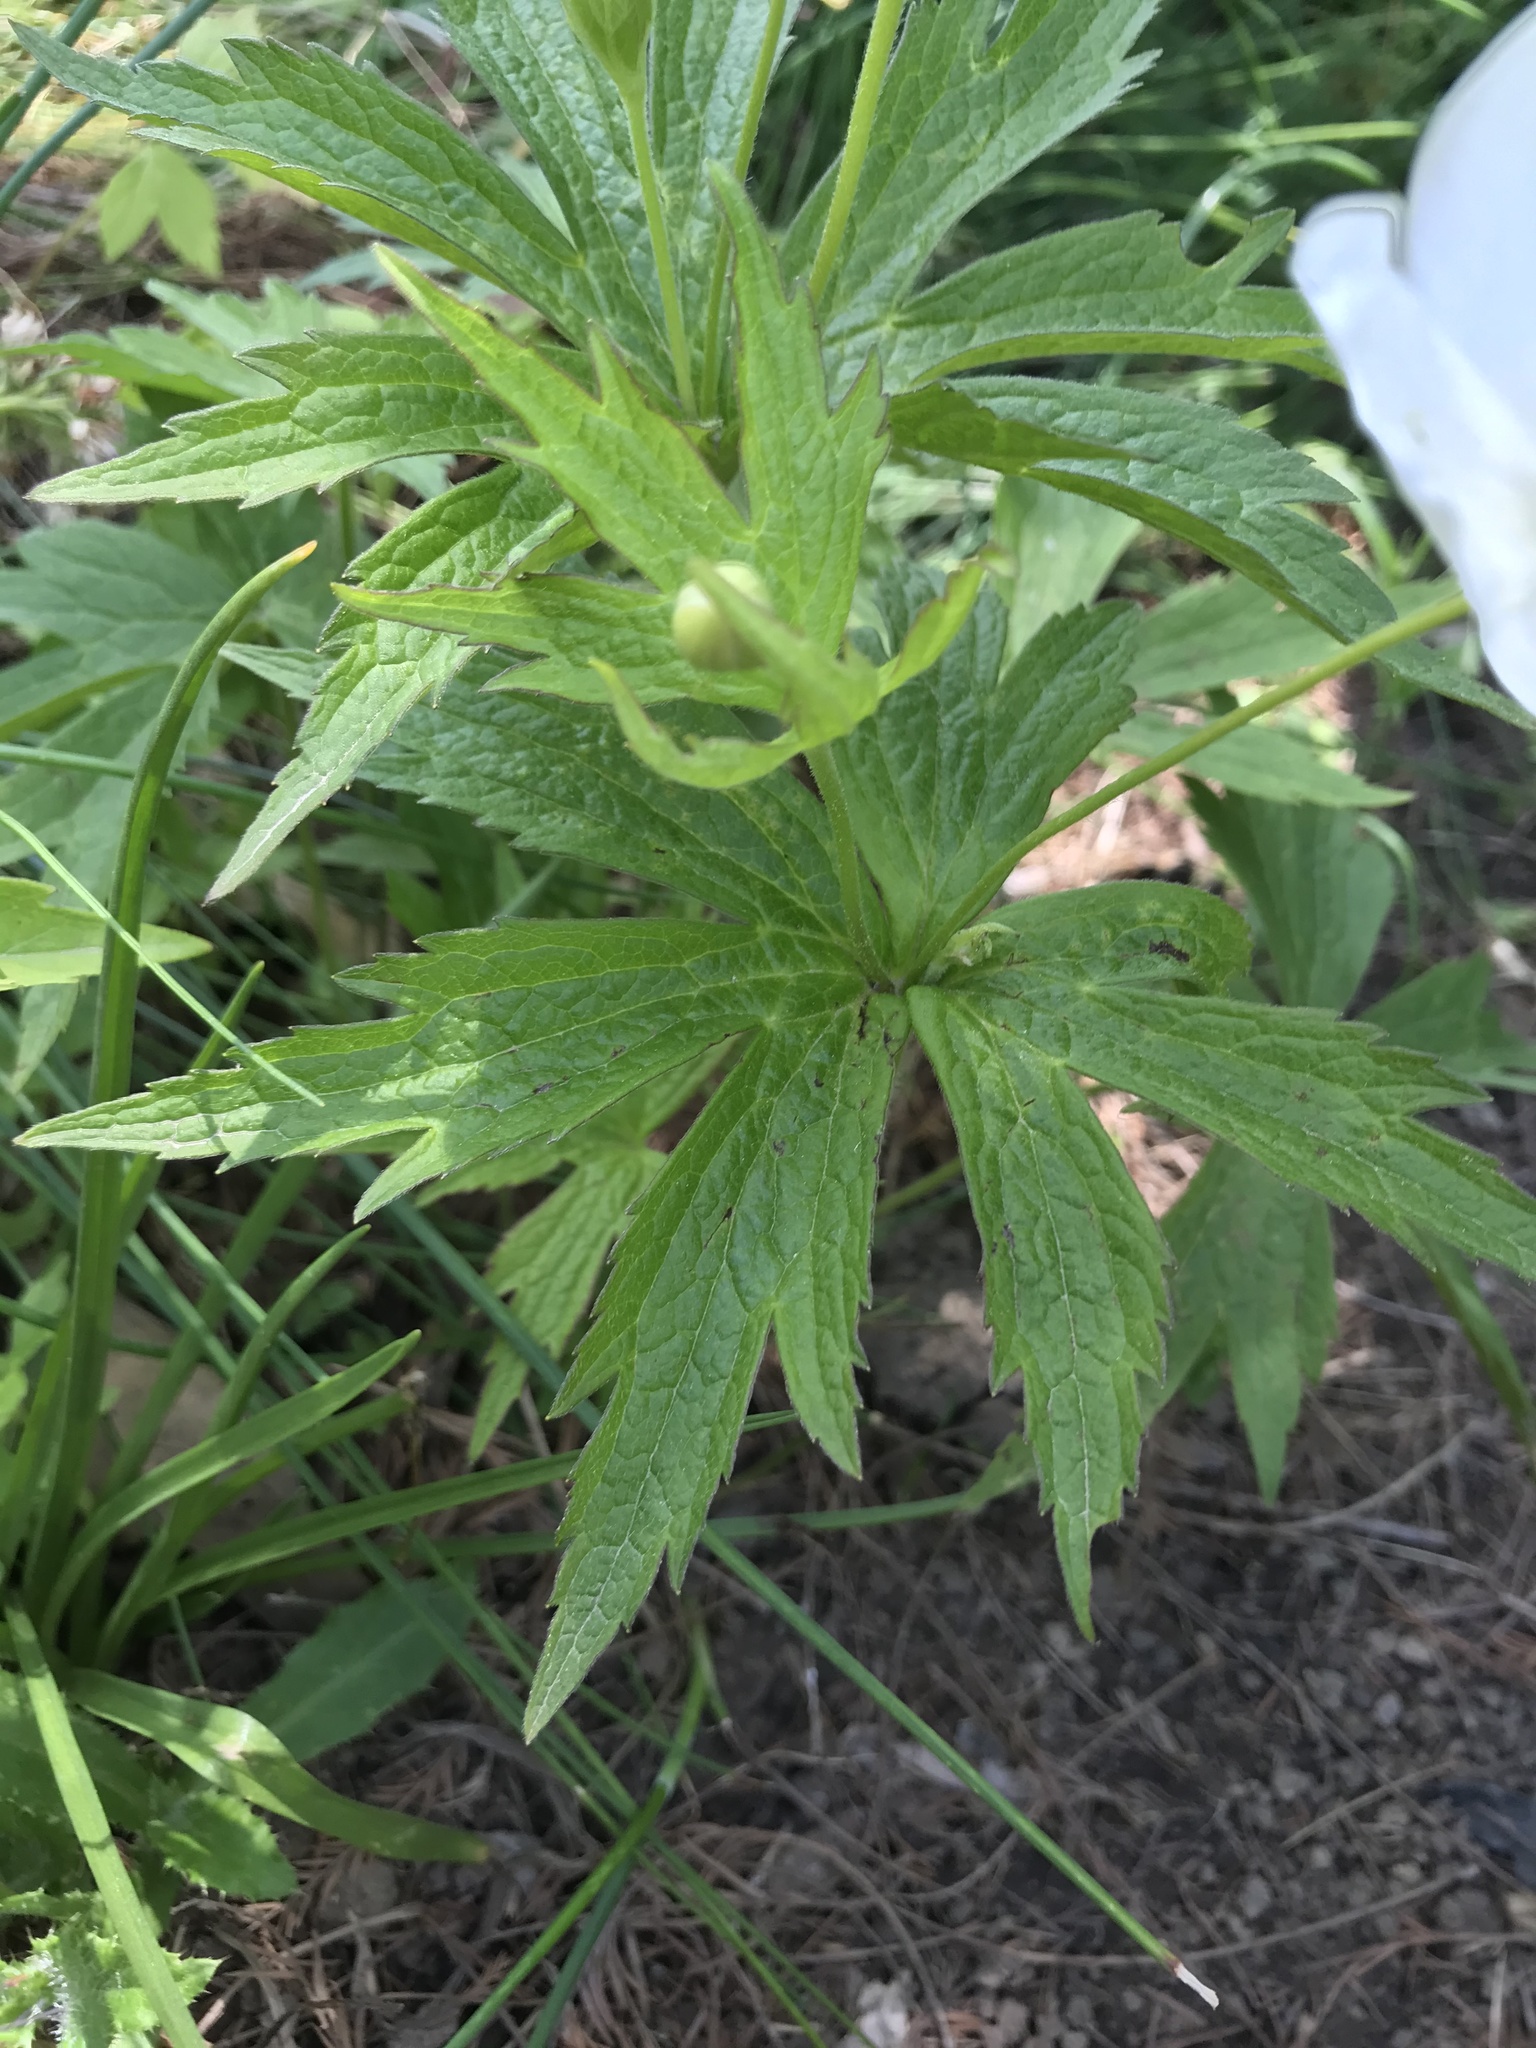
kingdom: Plantae
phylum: Tracheophyta
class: Magnoliopsida
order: Ranunculales
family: Ranunculaceae
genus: Anemonastrum
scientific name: Anemonastrum canadense
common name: Canada anemone
